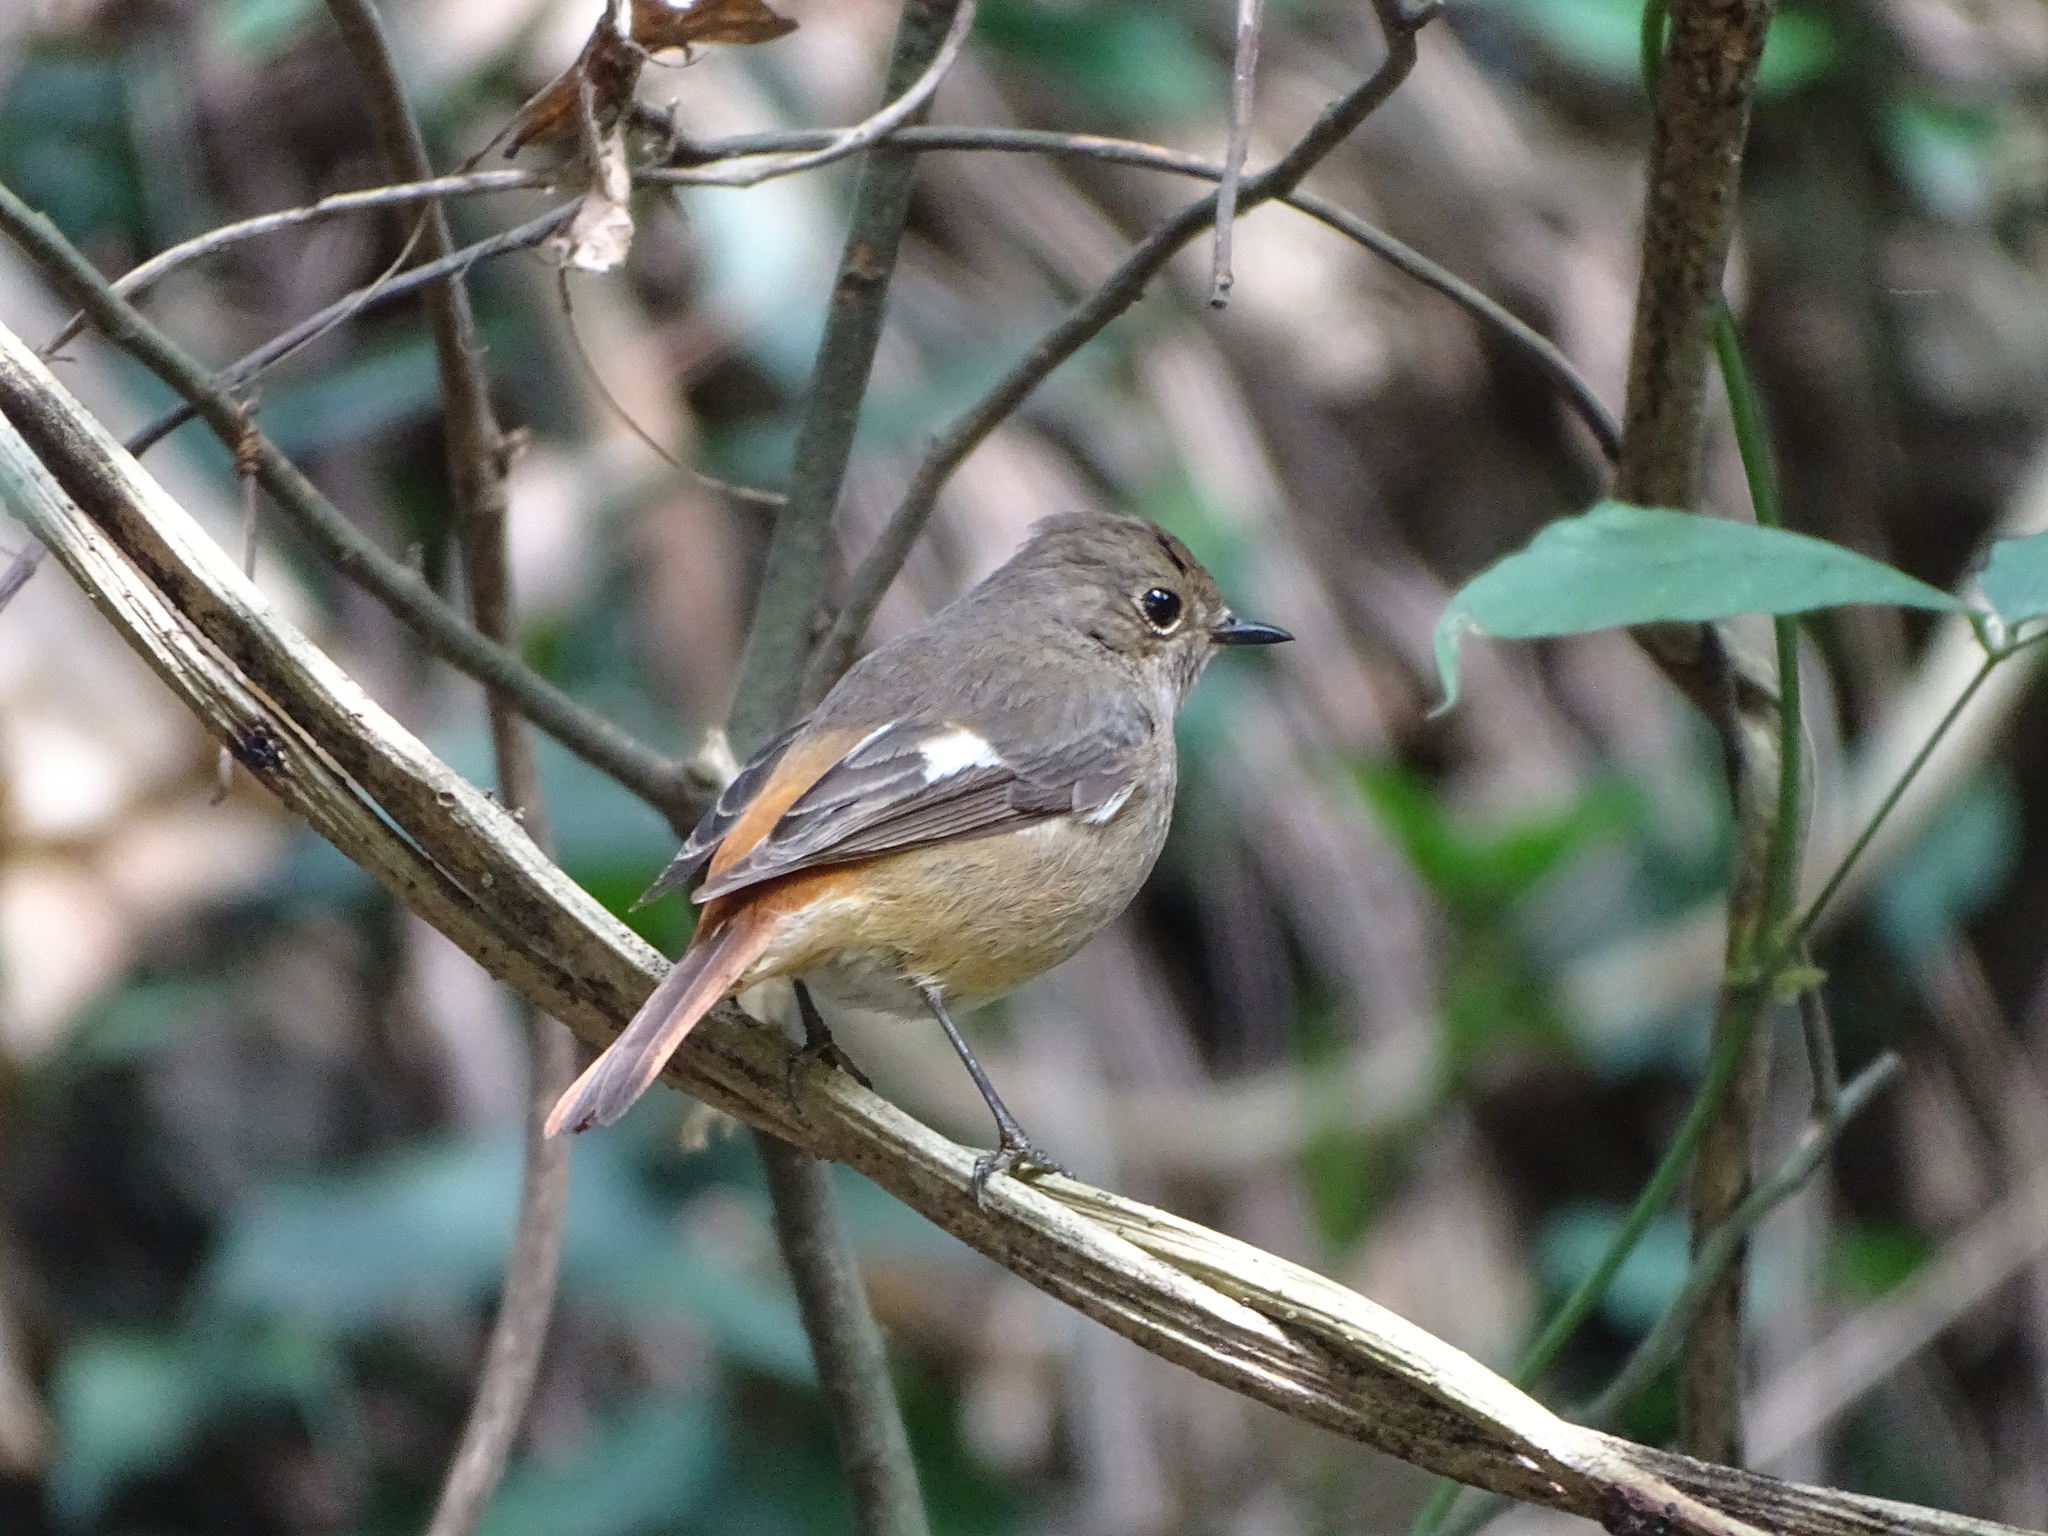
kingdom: Animalia
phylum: Chordata
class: Aves
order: Passeriformes
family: Muscicapidae
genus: Phoenicurus
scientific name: Phoenicurus auroreus
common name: Daurian redstart
